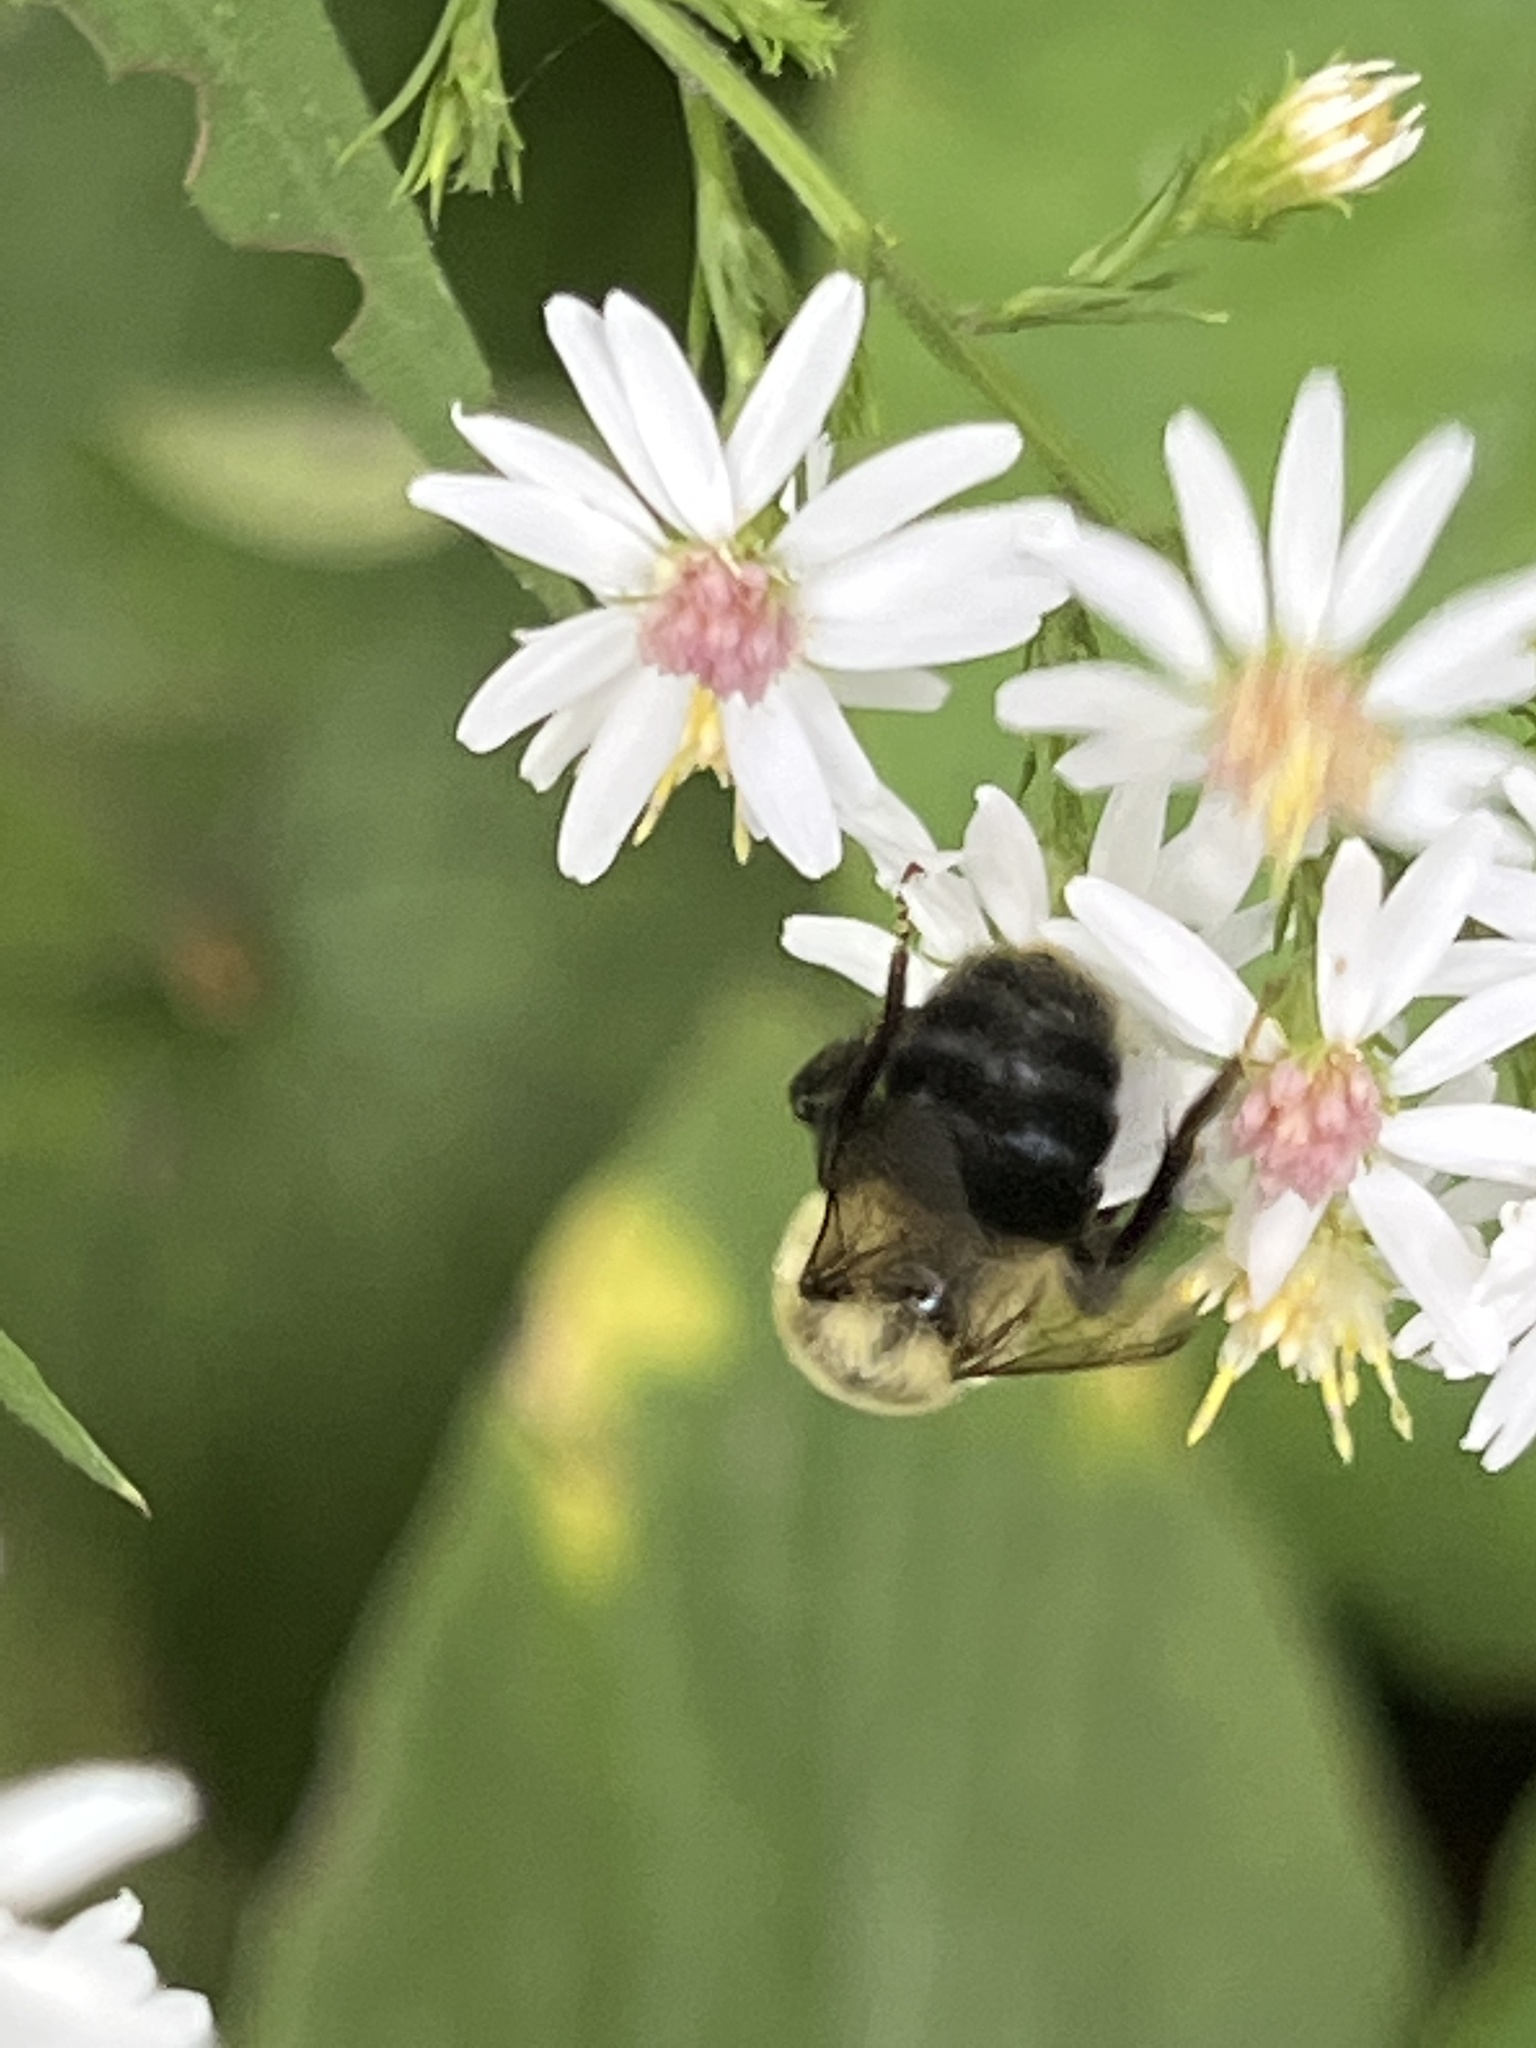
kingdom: Animalia
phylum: Arthropoda
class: Insecta
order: Hymenoptera
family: Apidae
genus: Bombus
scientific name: Bombus impatiens
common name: Common eastern bumble bee
